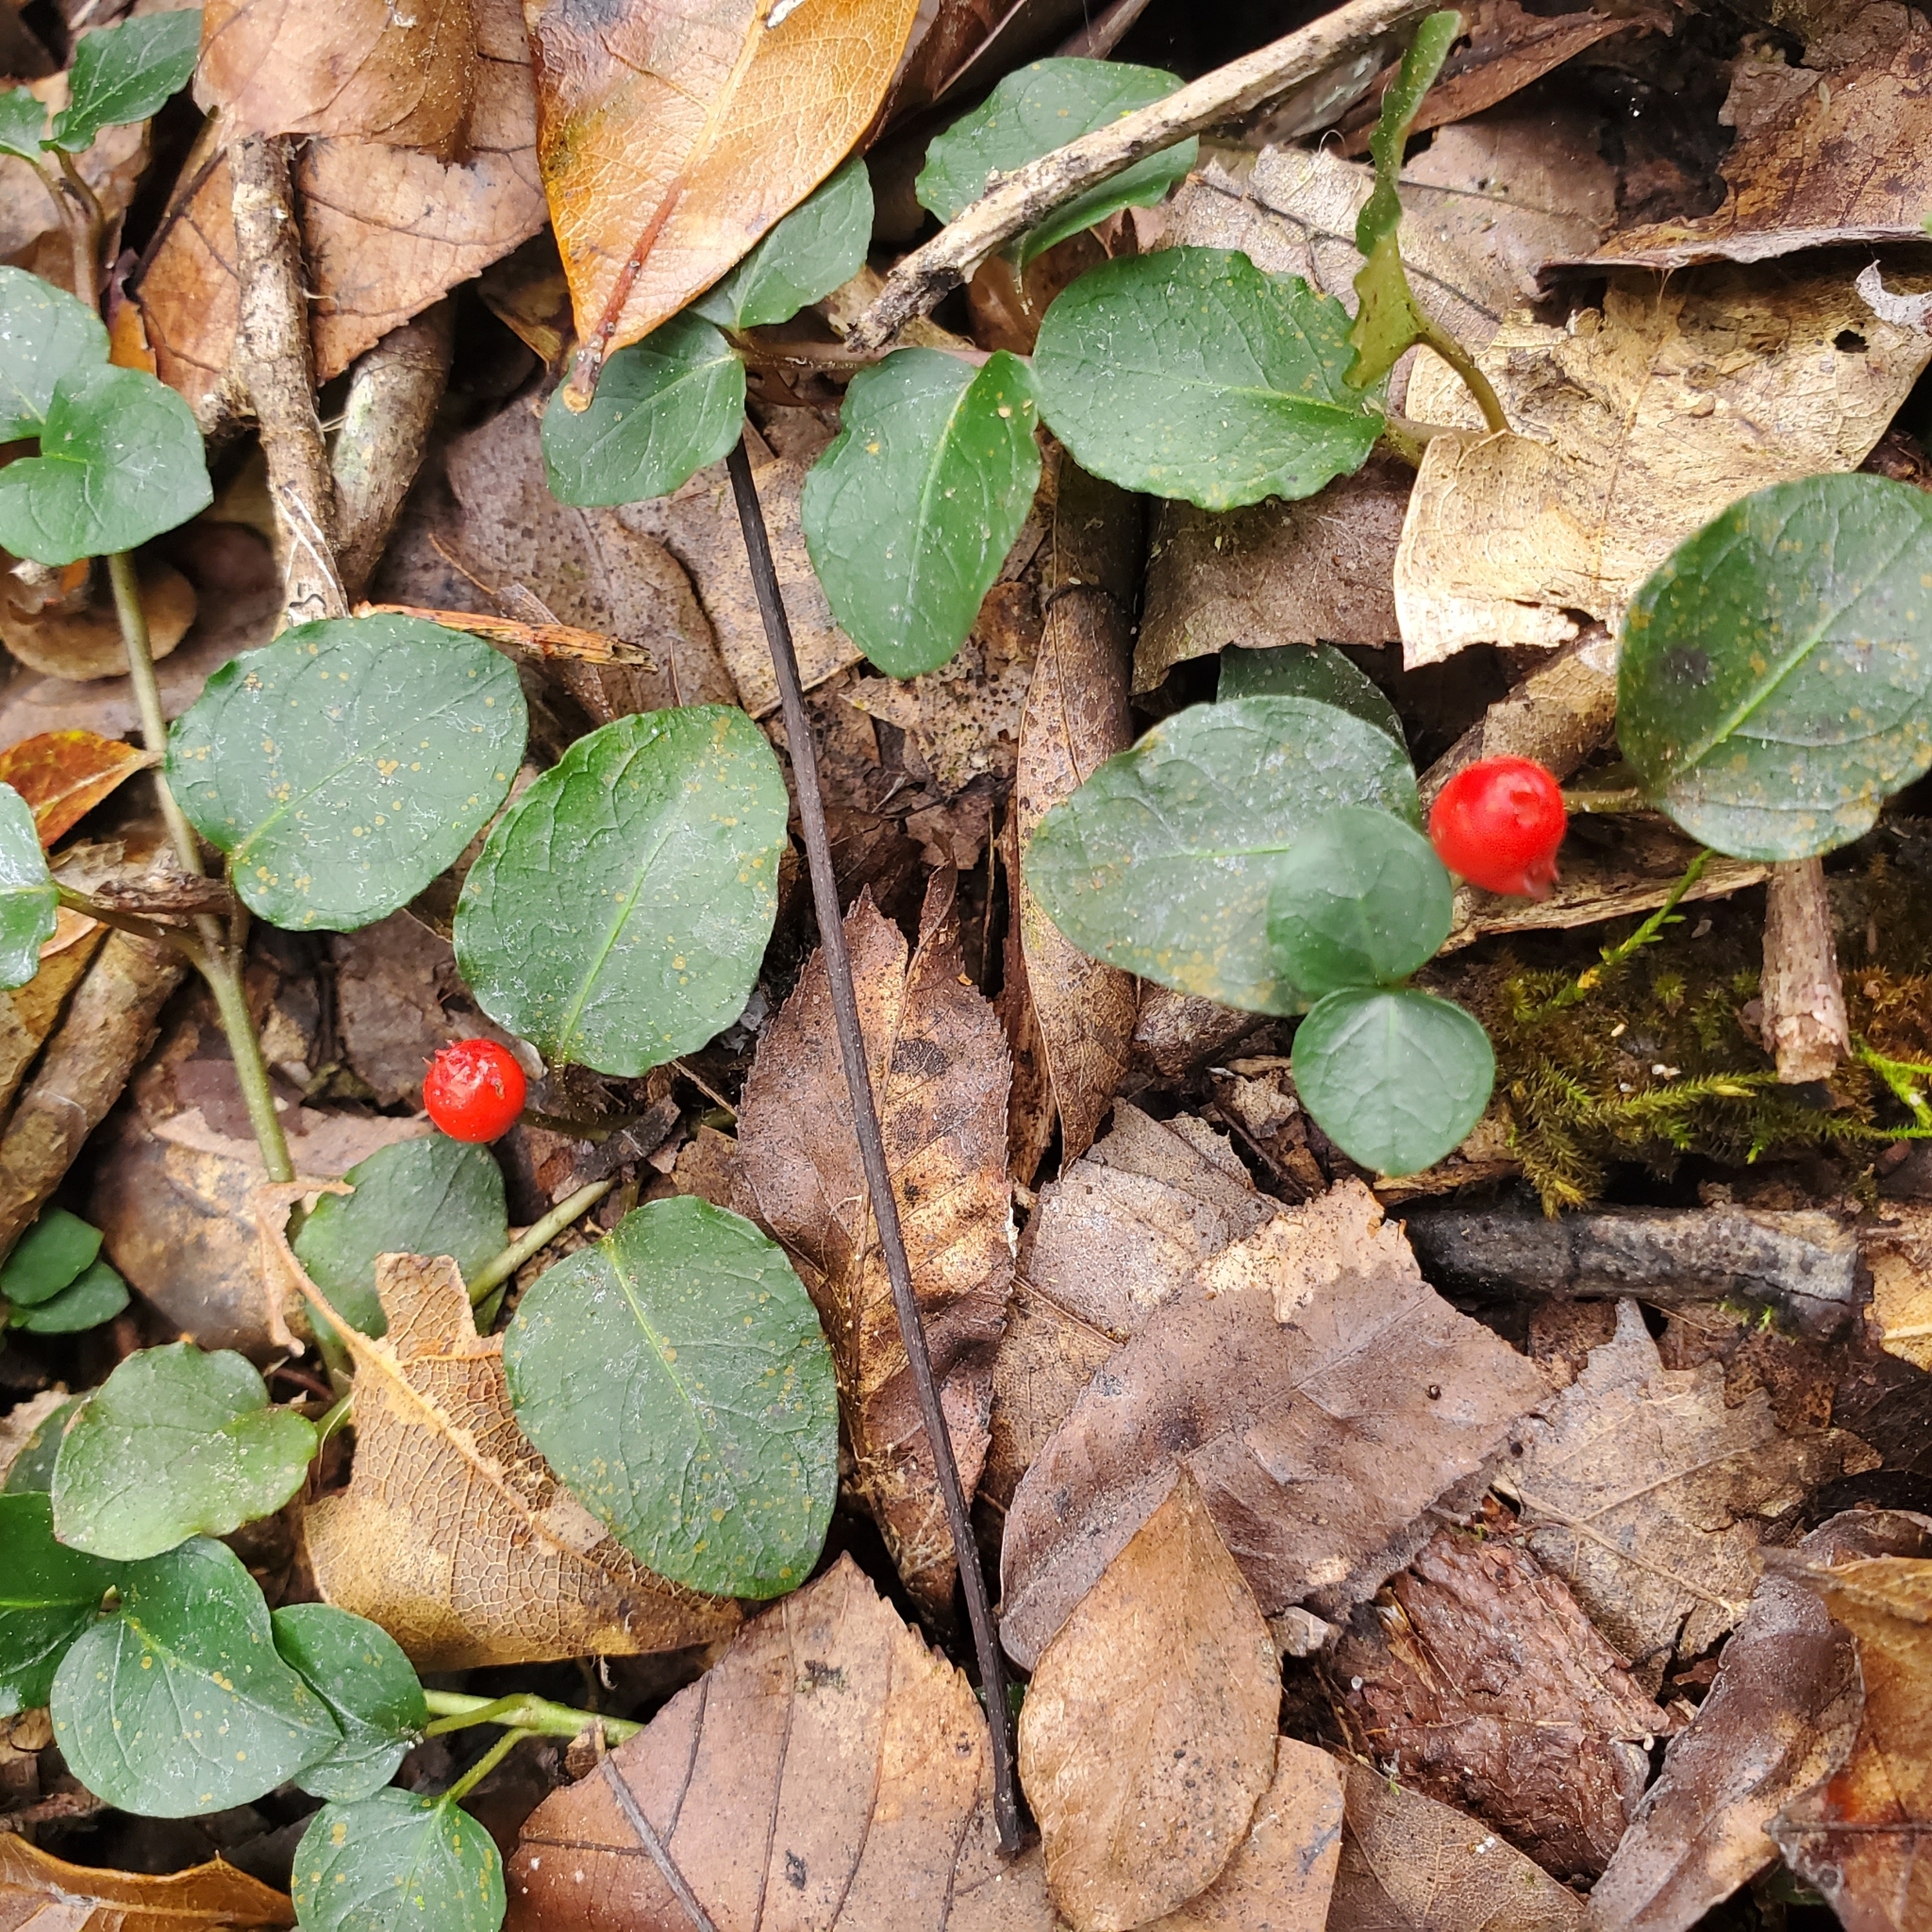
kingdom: Plantae
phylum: Tracheophyta
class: Magnoliopsida
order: Gentianales
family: Rubiaceae
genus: Mitchella
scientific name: Mitchella repens
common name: Partridge-berry
